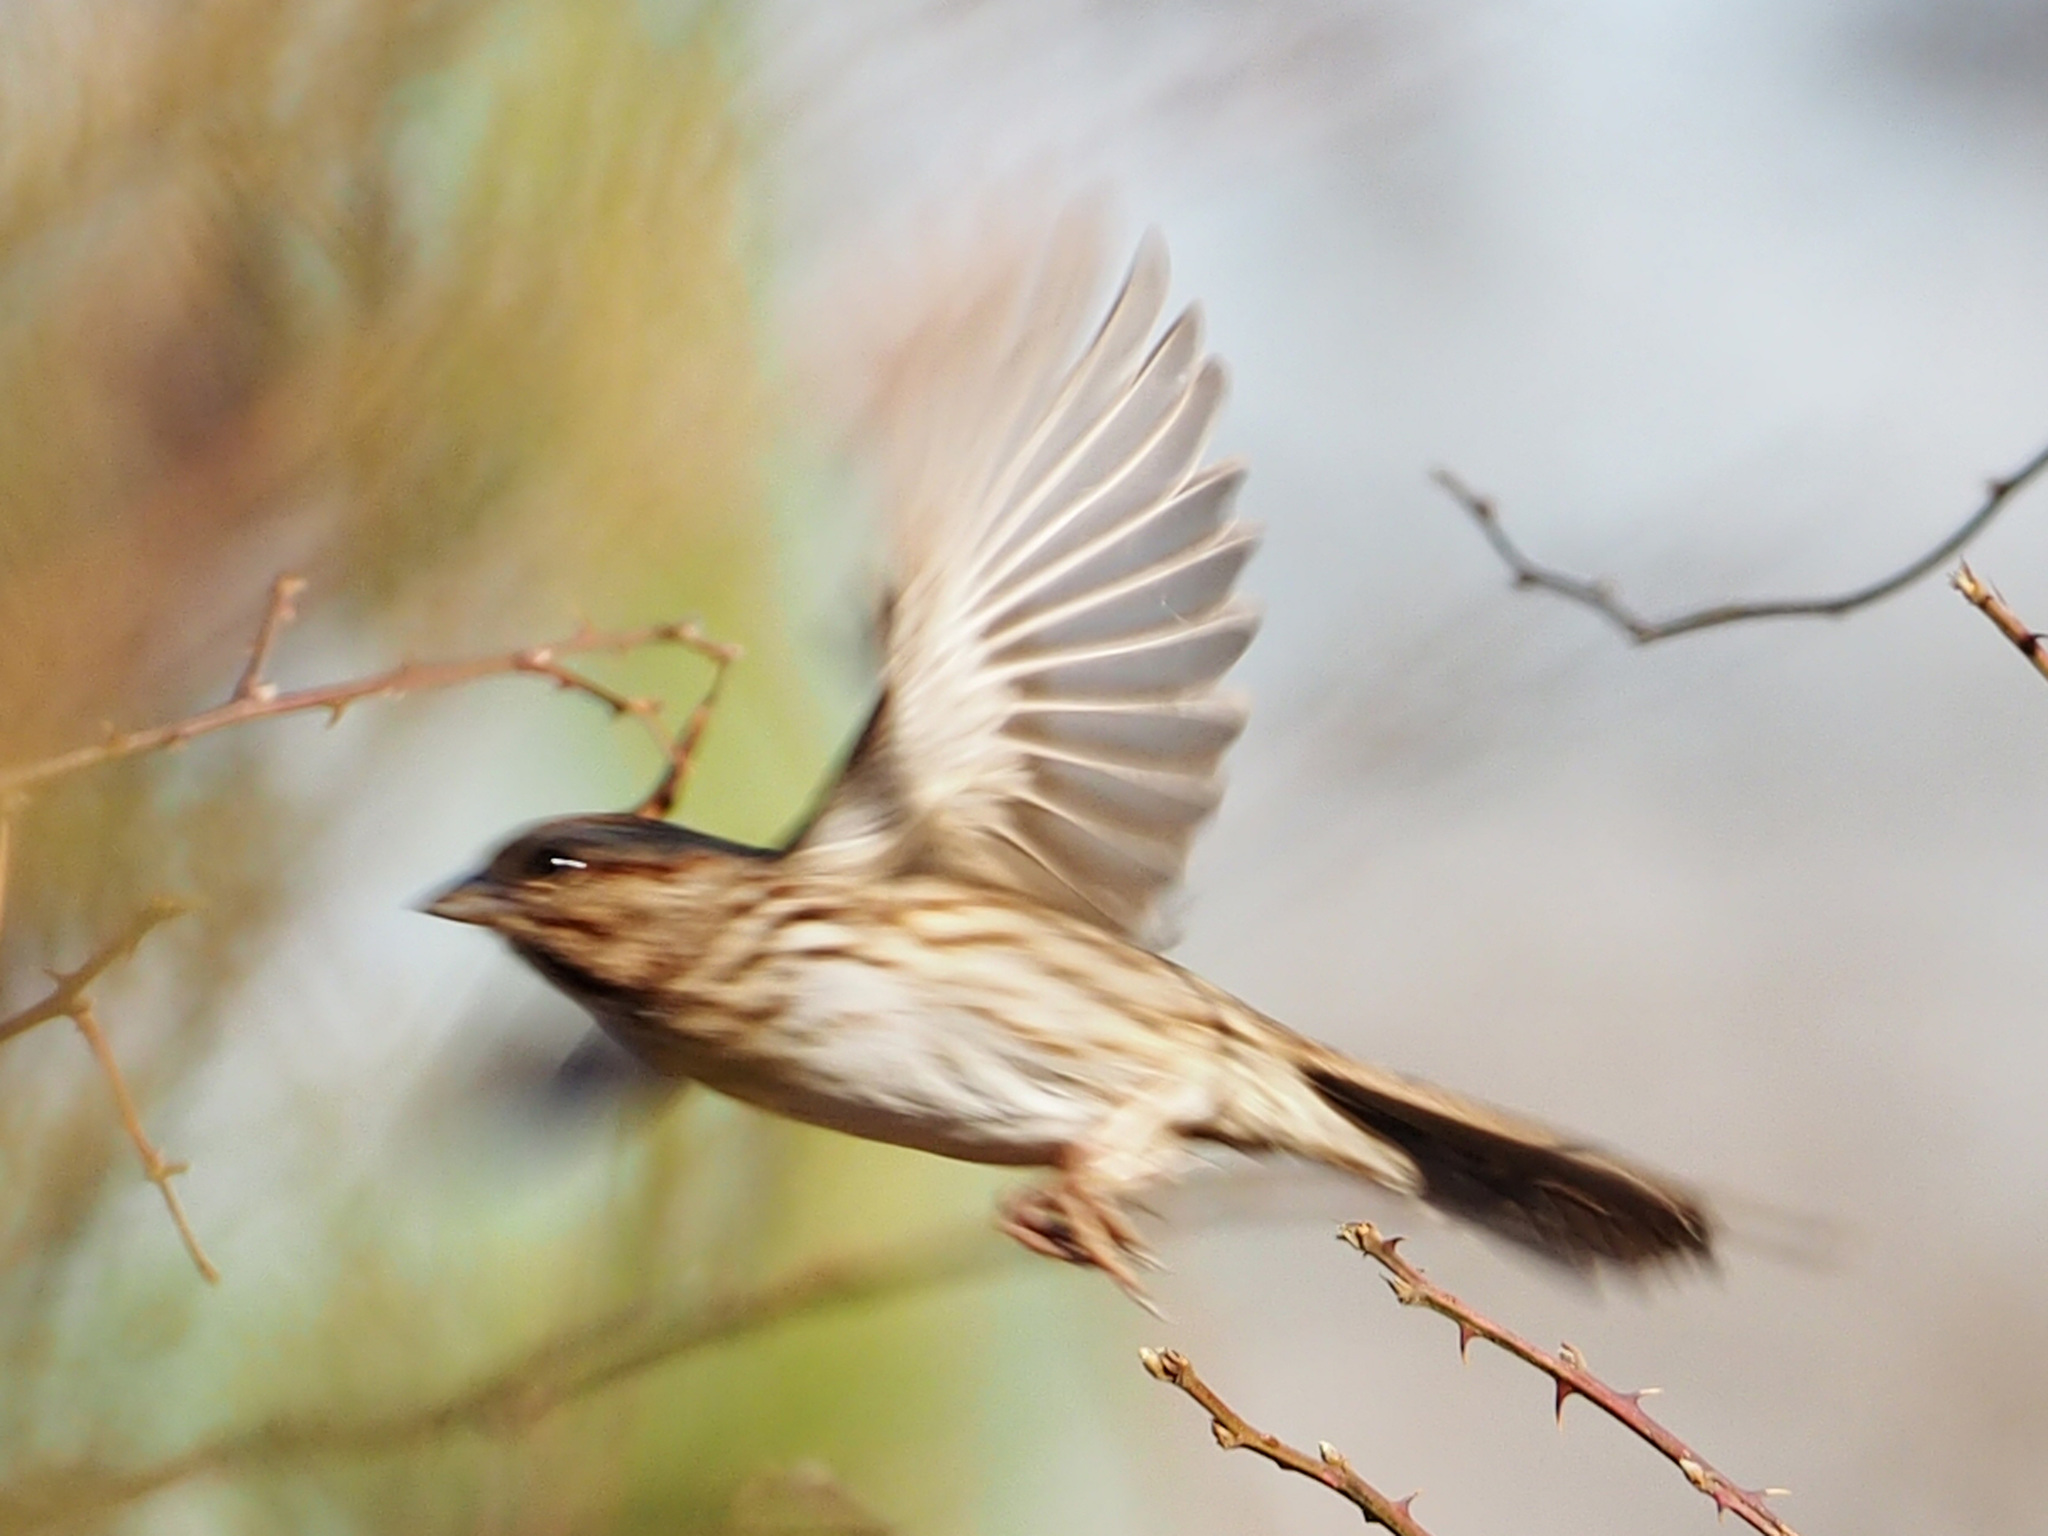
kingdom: Animalia
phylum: Chordata
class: Aves
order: Passeriformes
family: Passerellidae
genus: Melospiza
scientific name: Melospiza melodia
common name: Song sparrow
